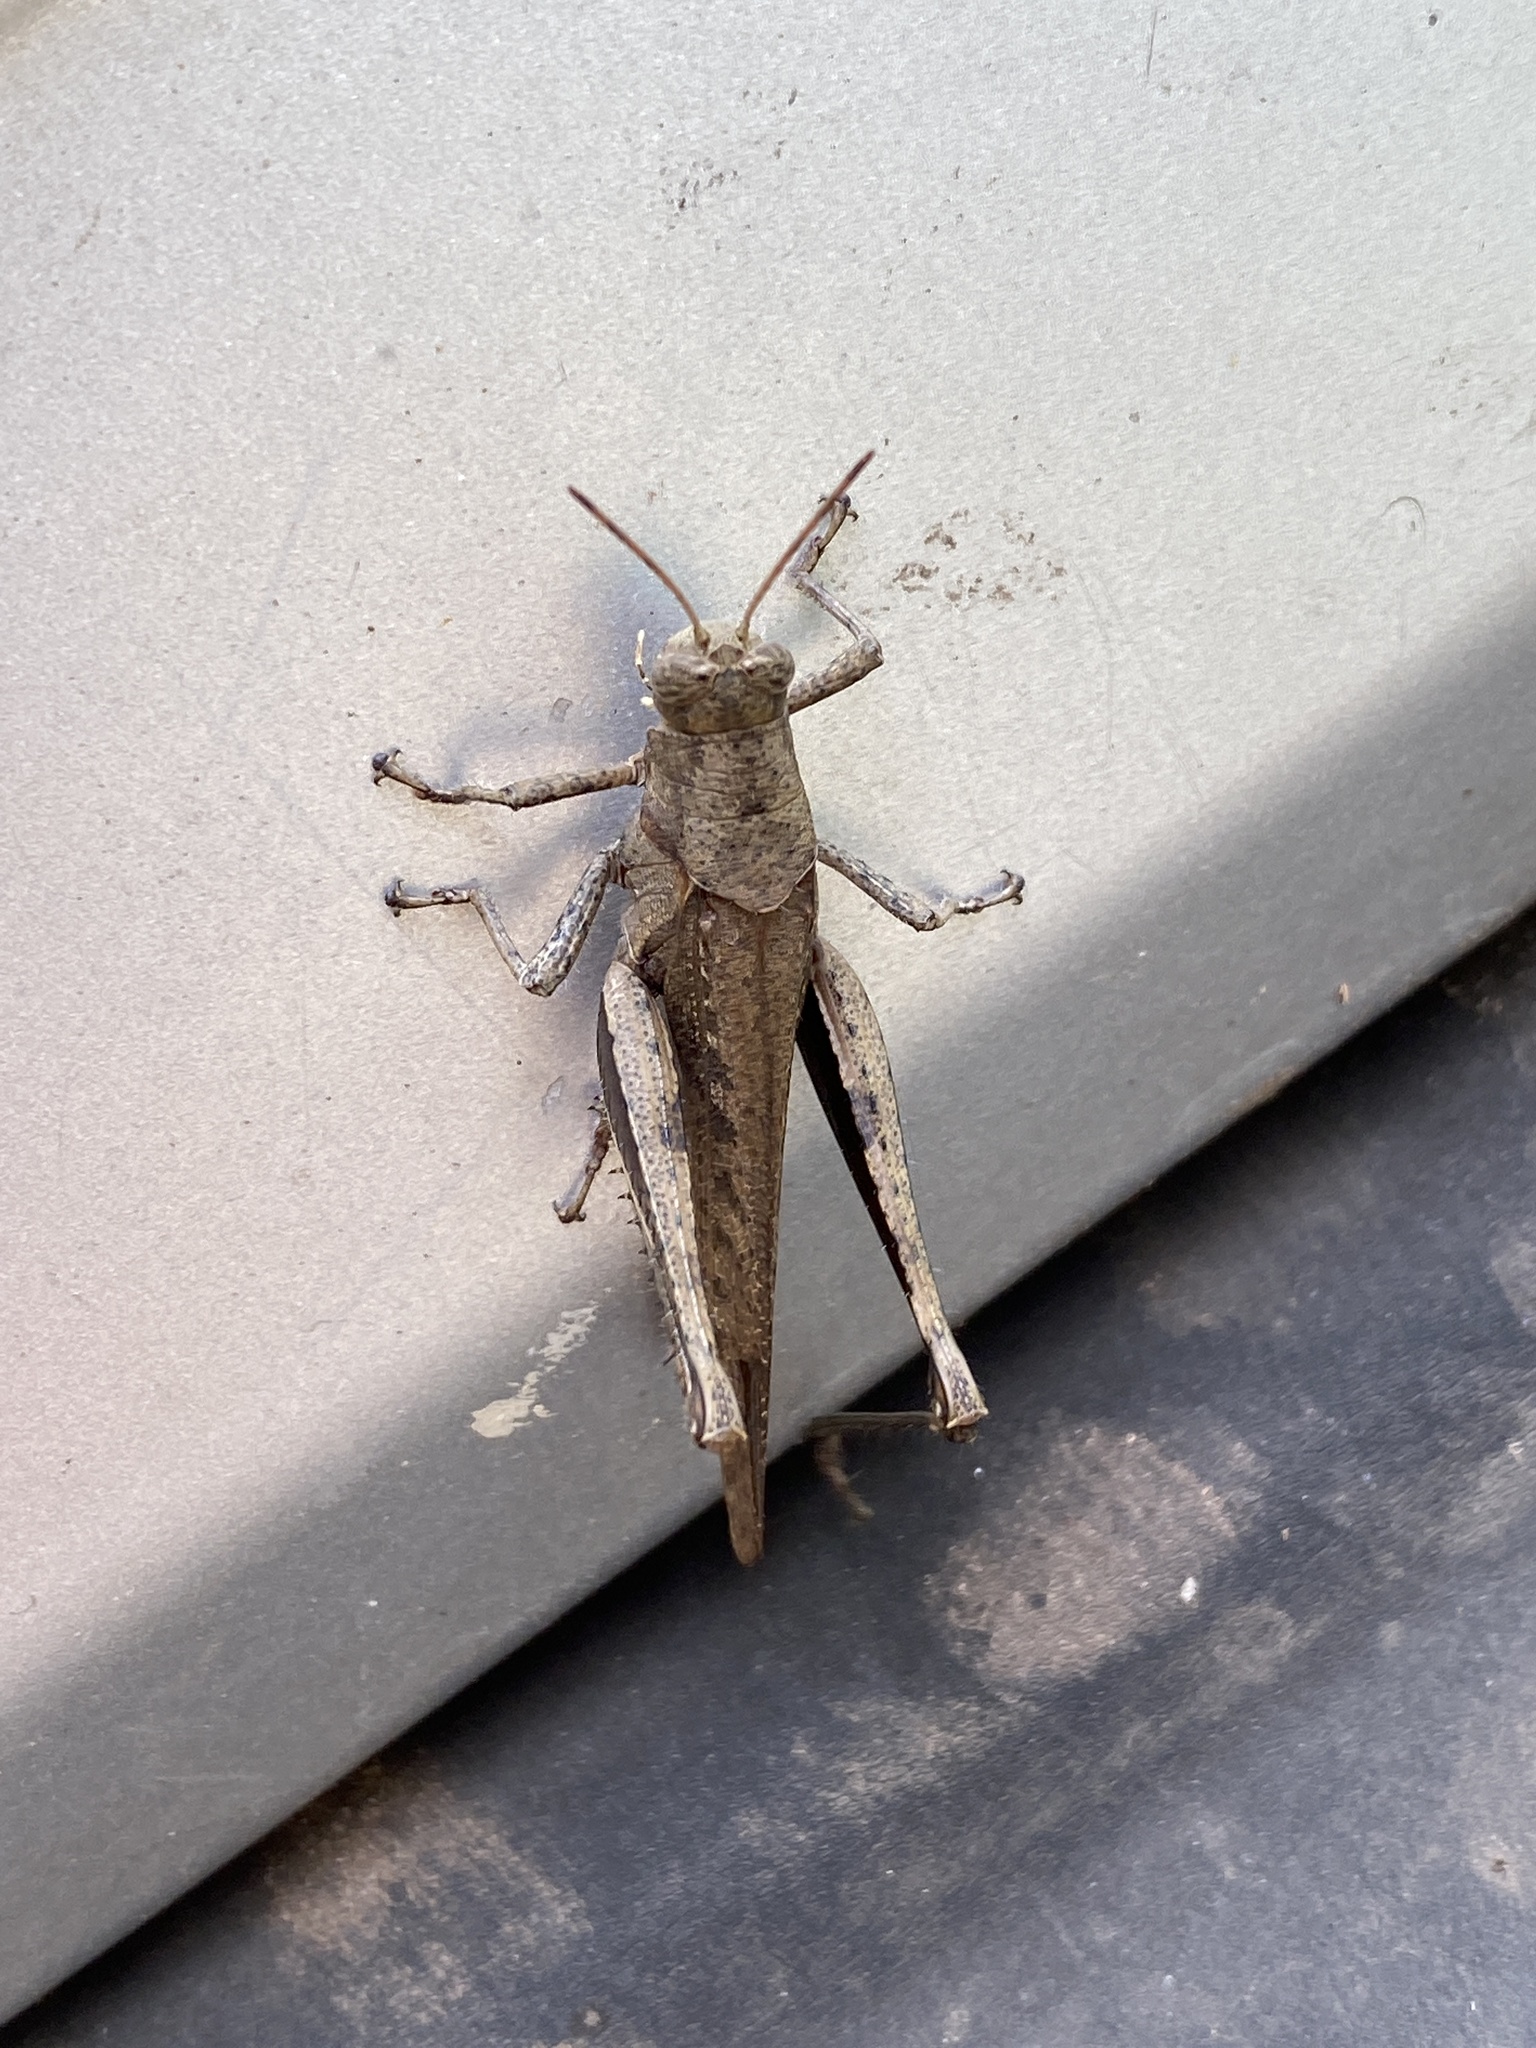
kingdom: Animalia
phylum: Arthropoda
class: Insecta
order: Orthoptera
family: Acrididae
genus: Abracris
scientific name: Abracris flavolineata
